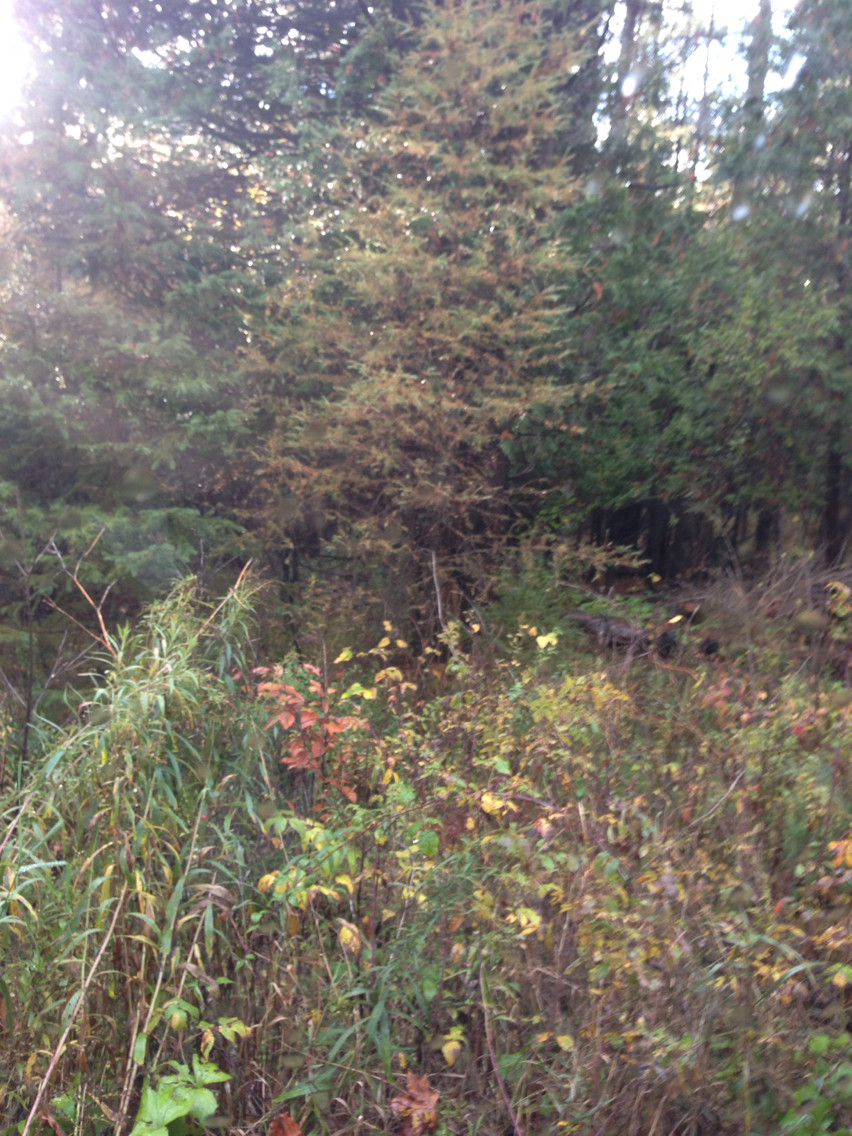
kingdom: Plantae
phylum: Tracheophyta
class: Pinopsida
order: Pinales
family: Pinaceae
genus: Larix
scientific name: Larix laricina
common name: American larch
